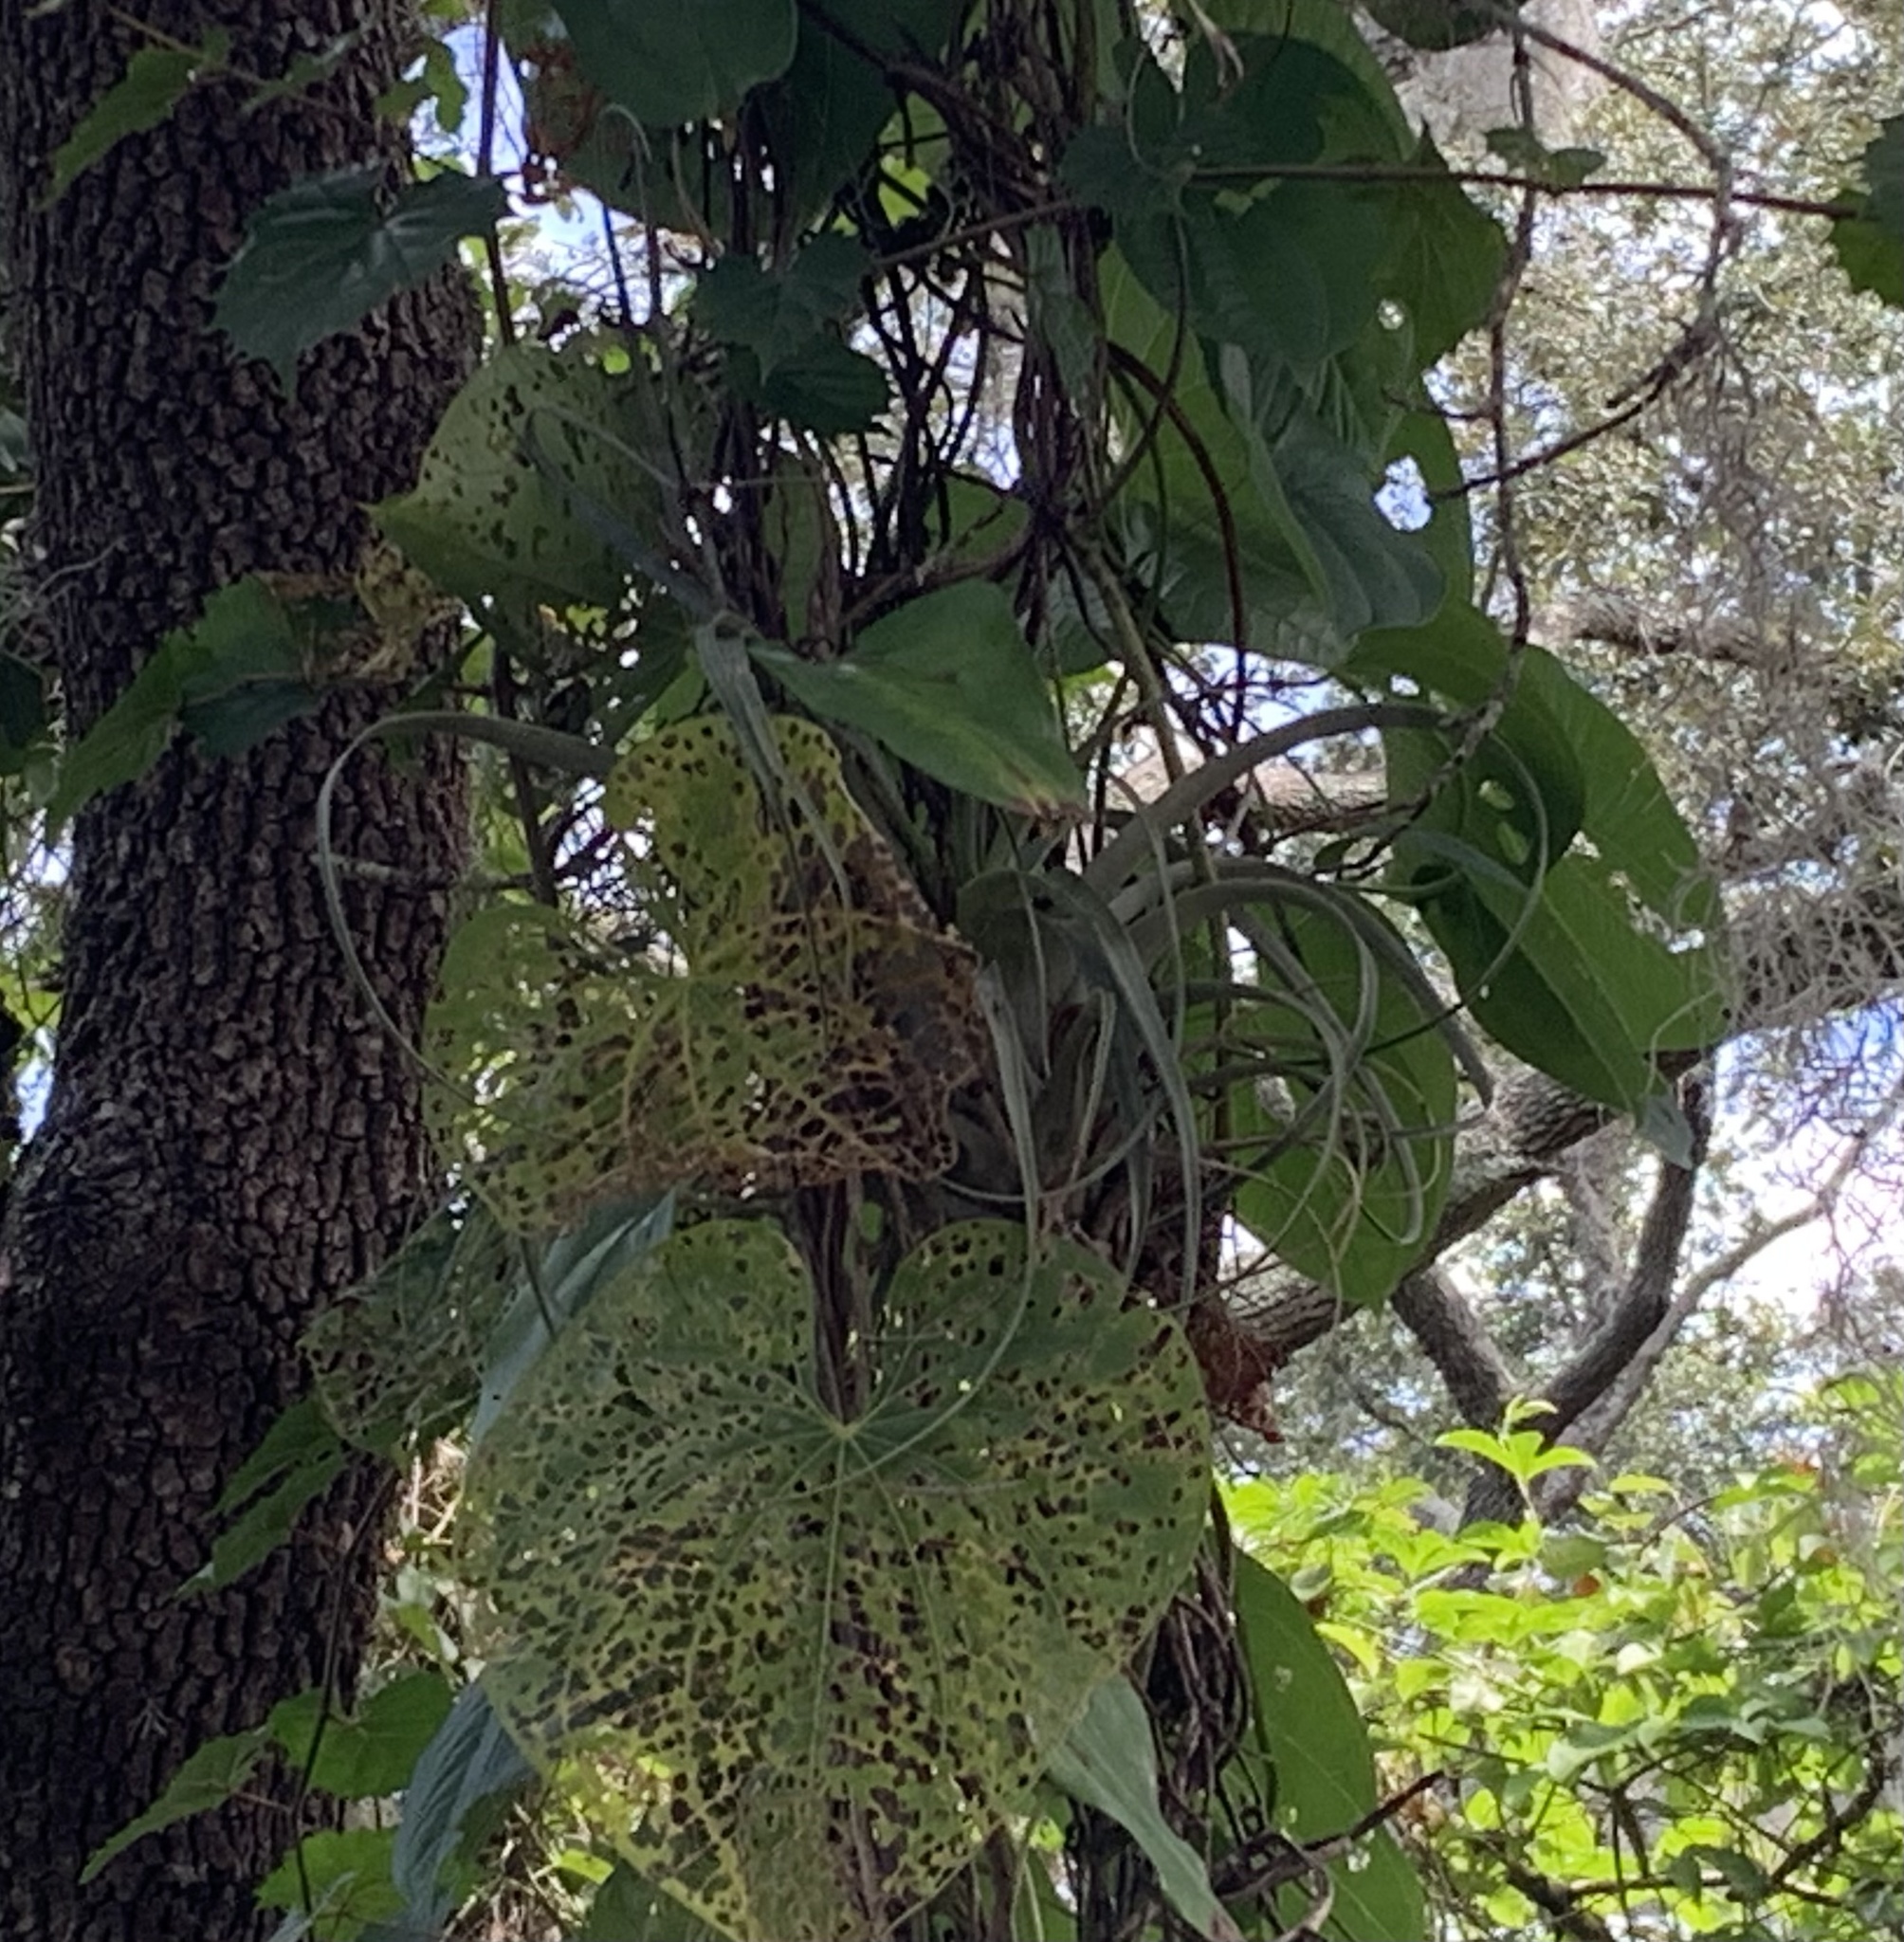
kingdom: Plantae
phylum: Tracheophyta
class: Liliopsida
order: Poales
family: Bromeliaceae
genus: Tillandsia
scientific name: Tillandsia utriculata
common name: Wild pine
